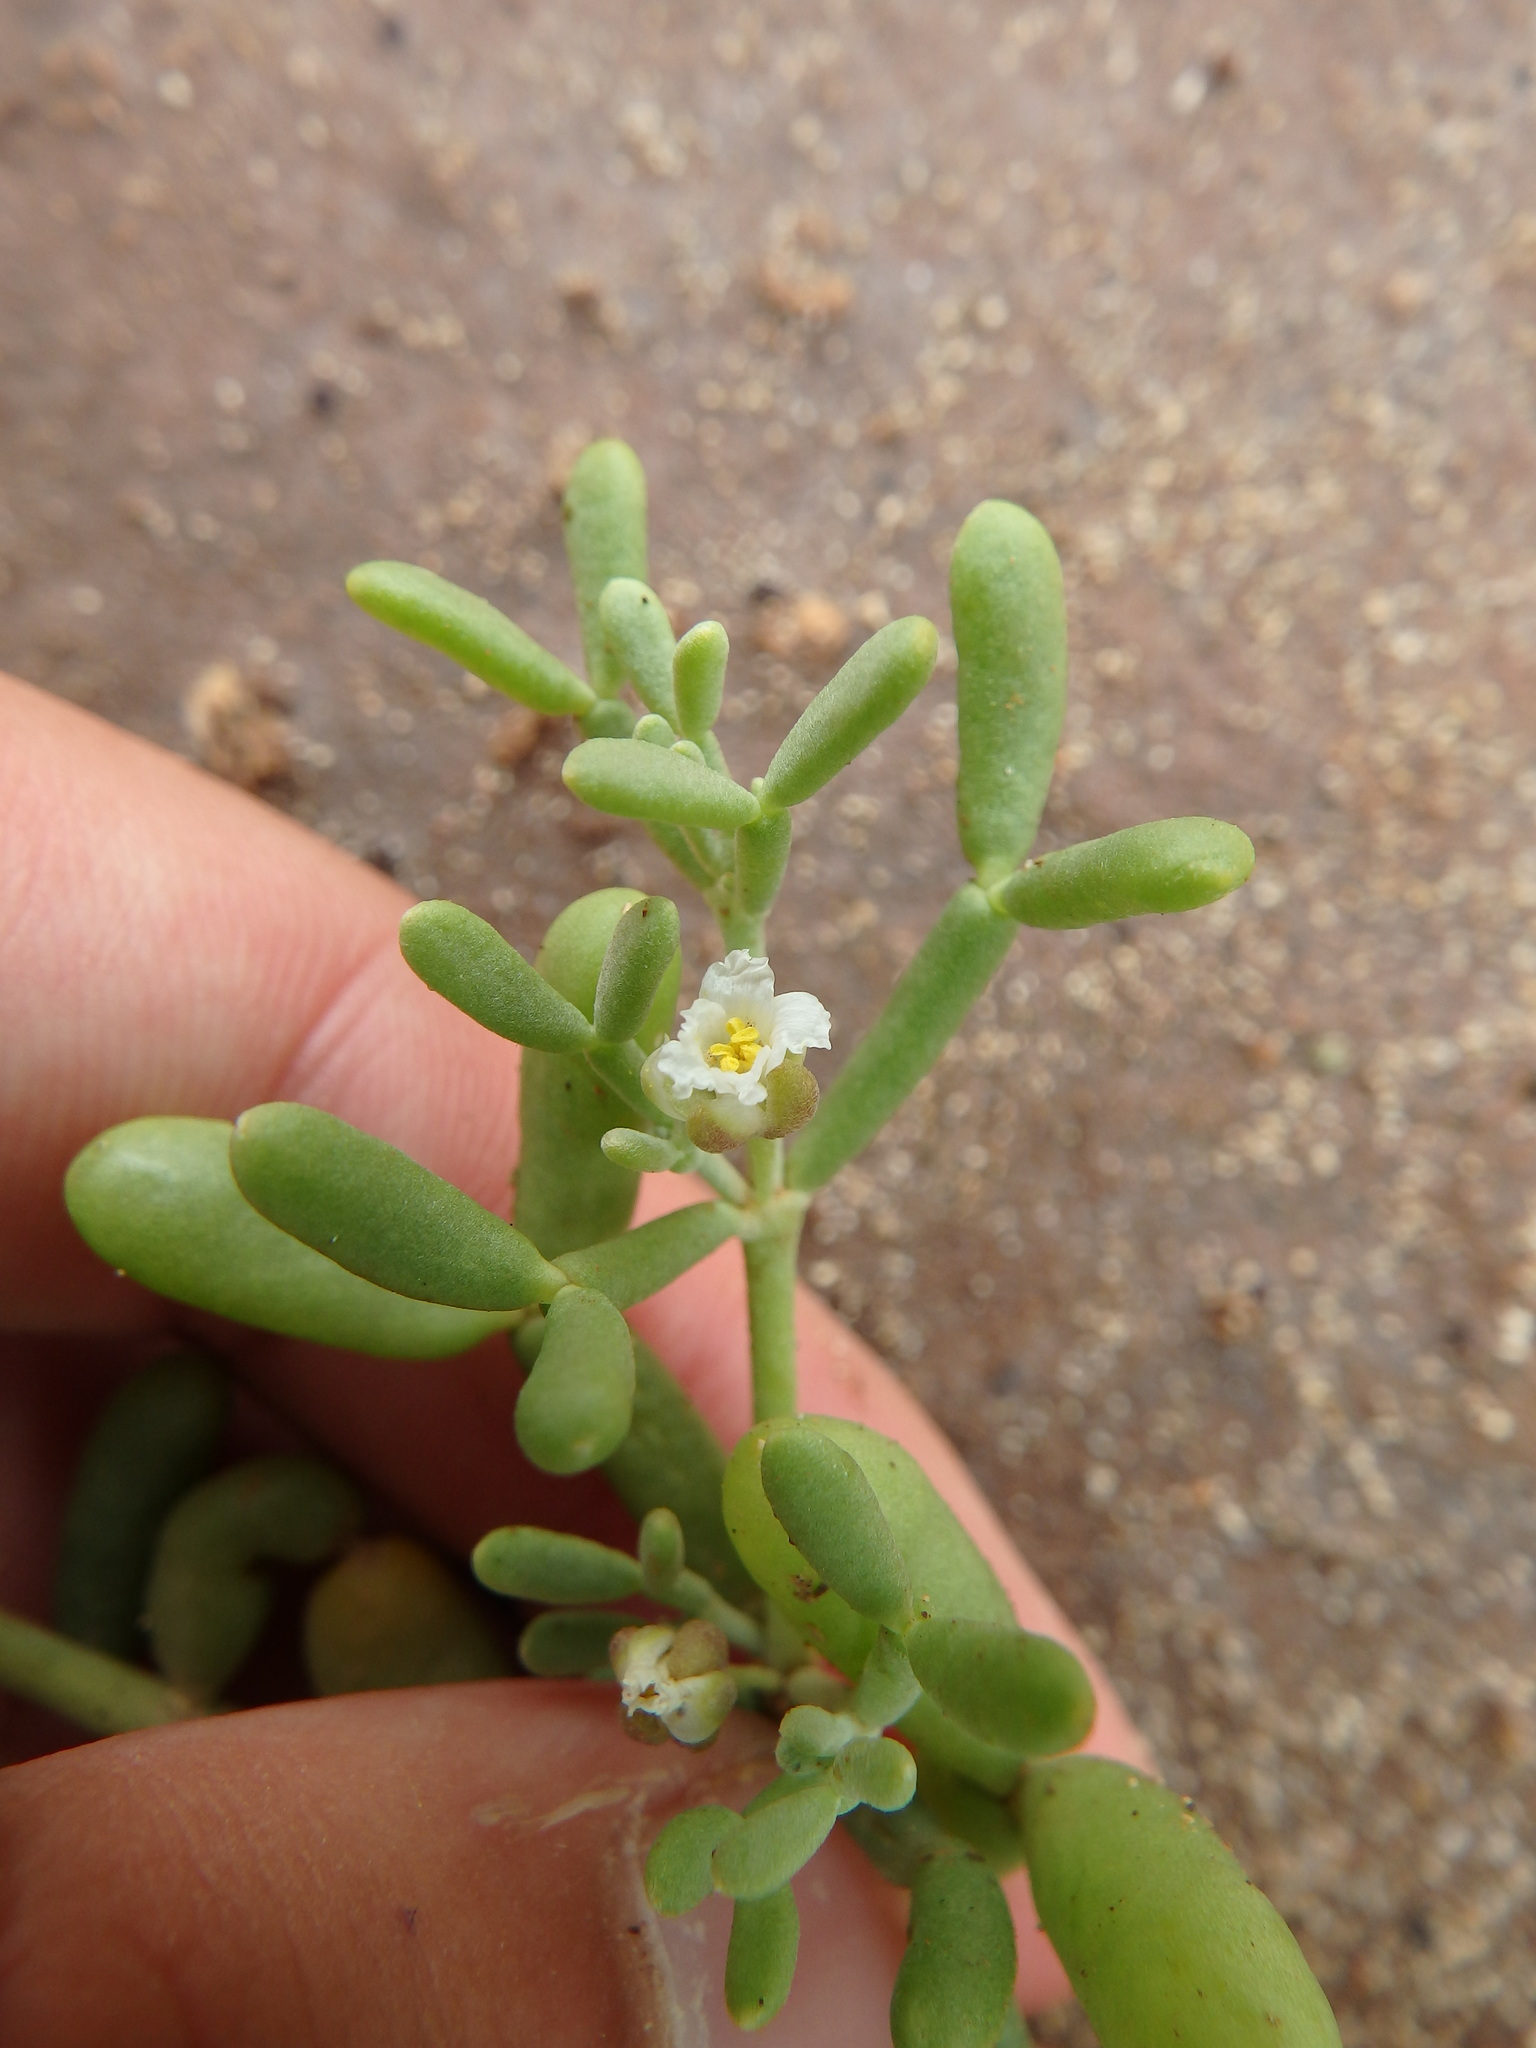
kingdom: Plantae
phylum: Tracheophyta
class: Magnoliopsida
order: Zygophyllales
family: Zygophyllaceae
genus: Tetraena
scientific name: Tetraena waterlotii
